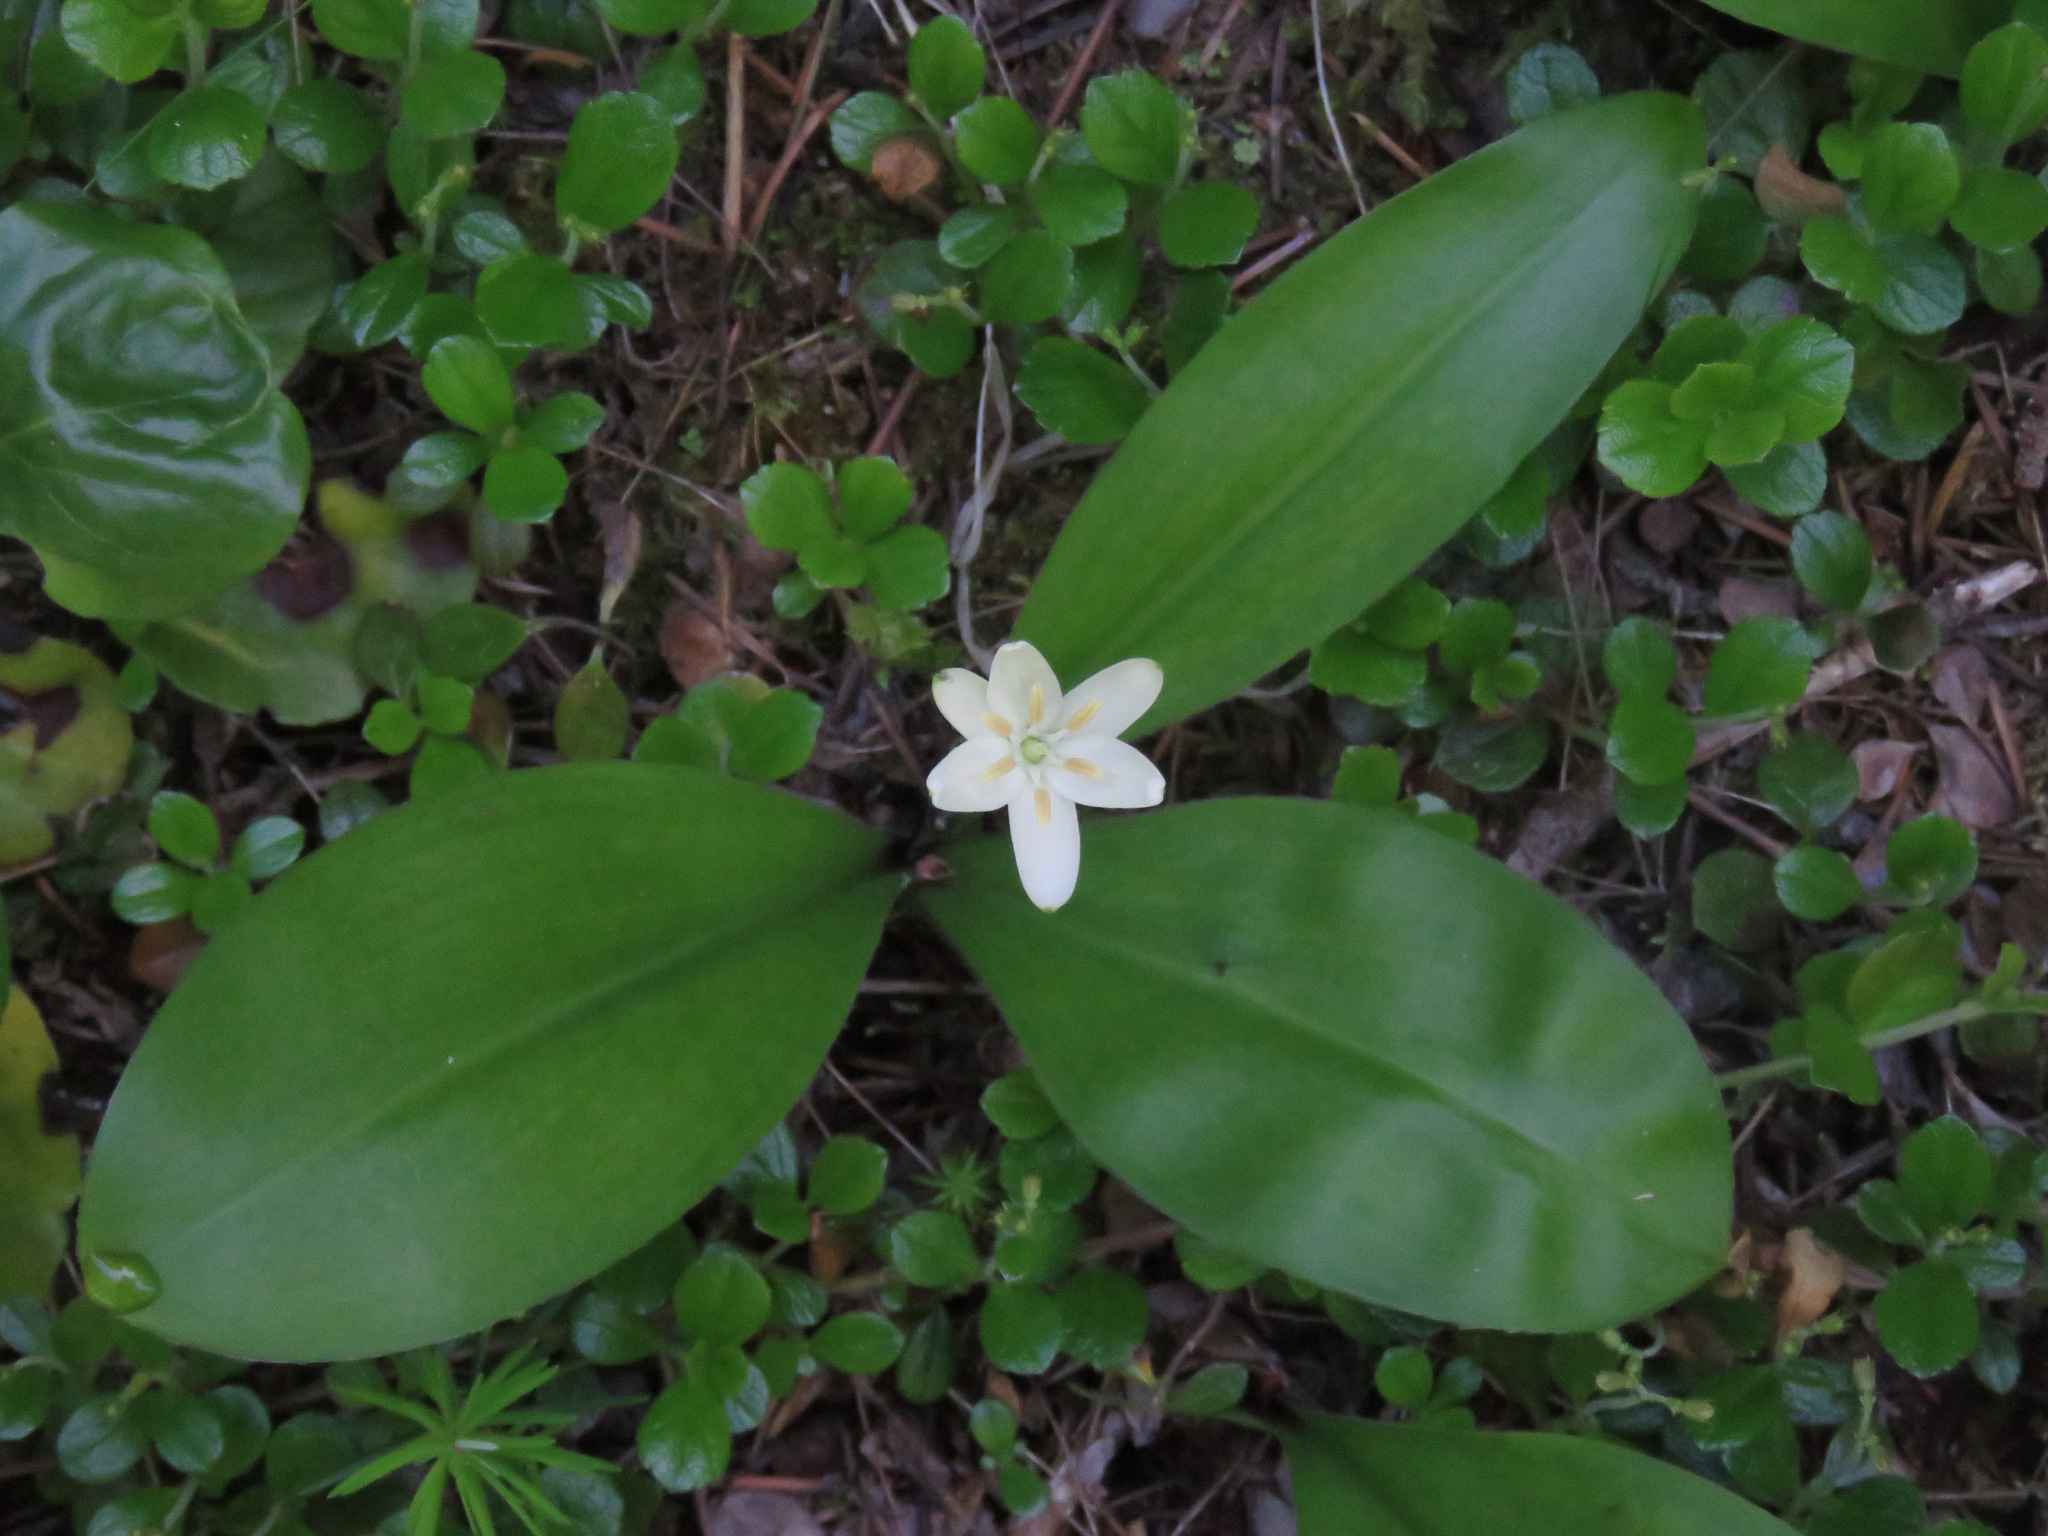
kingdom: Plantae
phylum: Tracheophyta
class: Liliopsida
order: Liliales
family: Liliaceae
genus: Clintonia
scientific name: Clintonia uniflora
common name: Queen's cup
